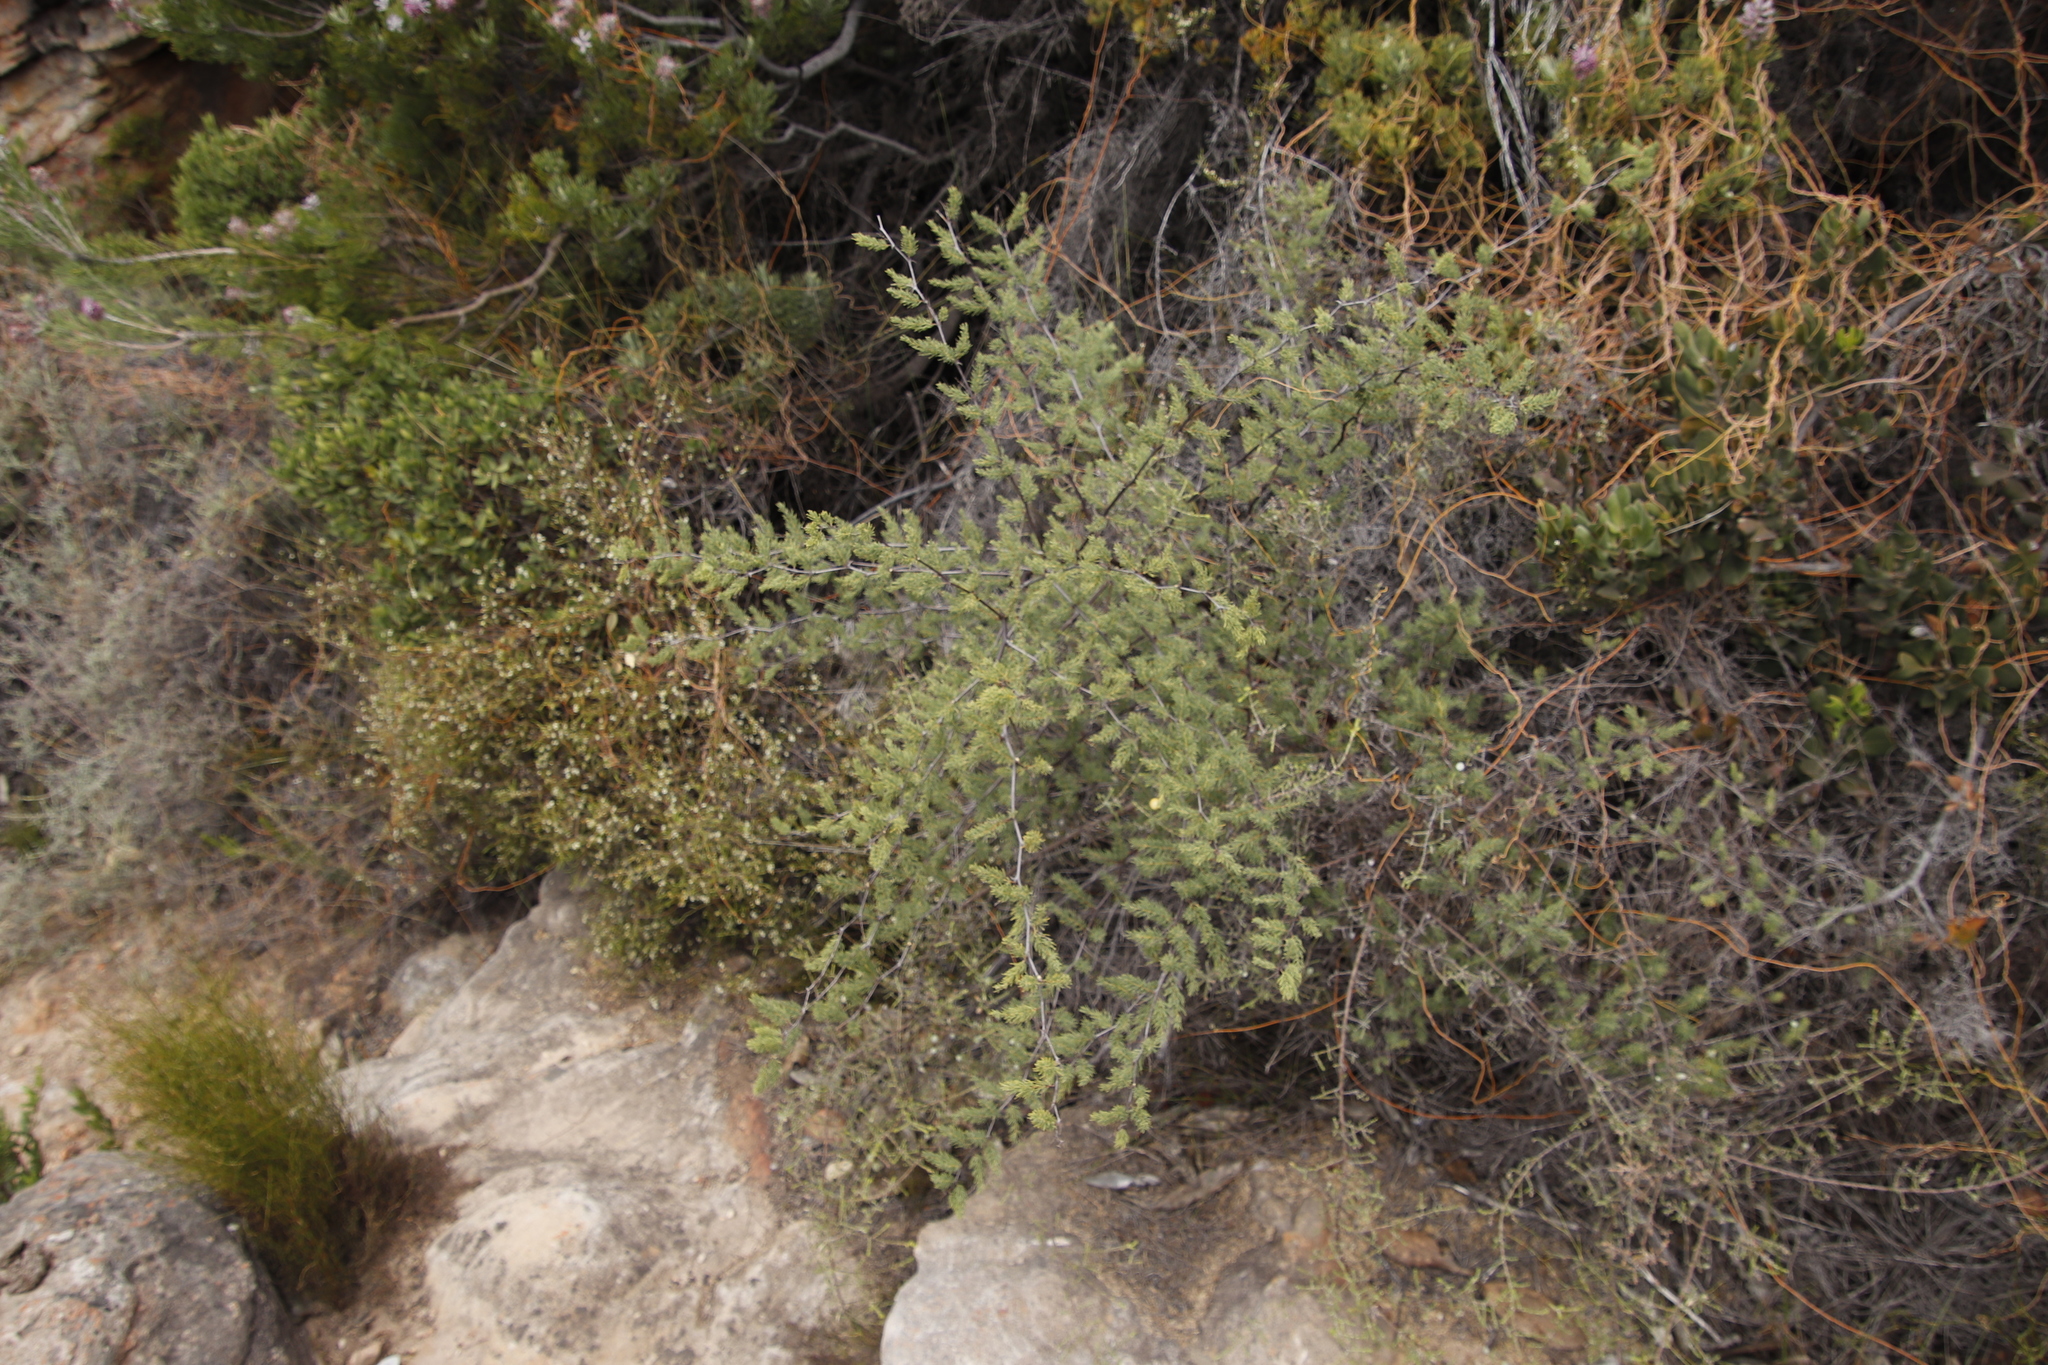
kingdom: Plantae
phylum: Tracheophyta
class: Liliopsida
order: Asparagales
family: Asparagaceae
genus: Asparagus
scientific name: Asparagus rubicundus
